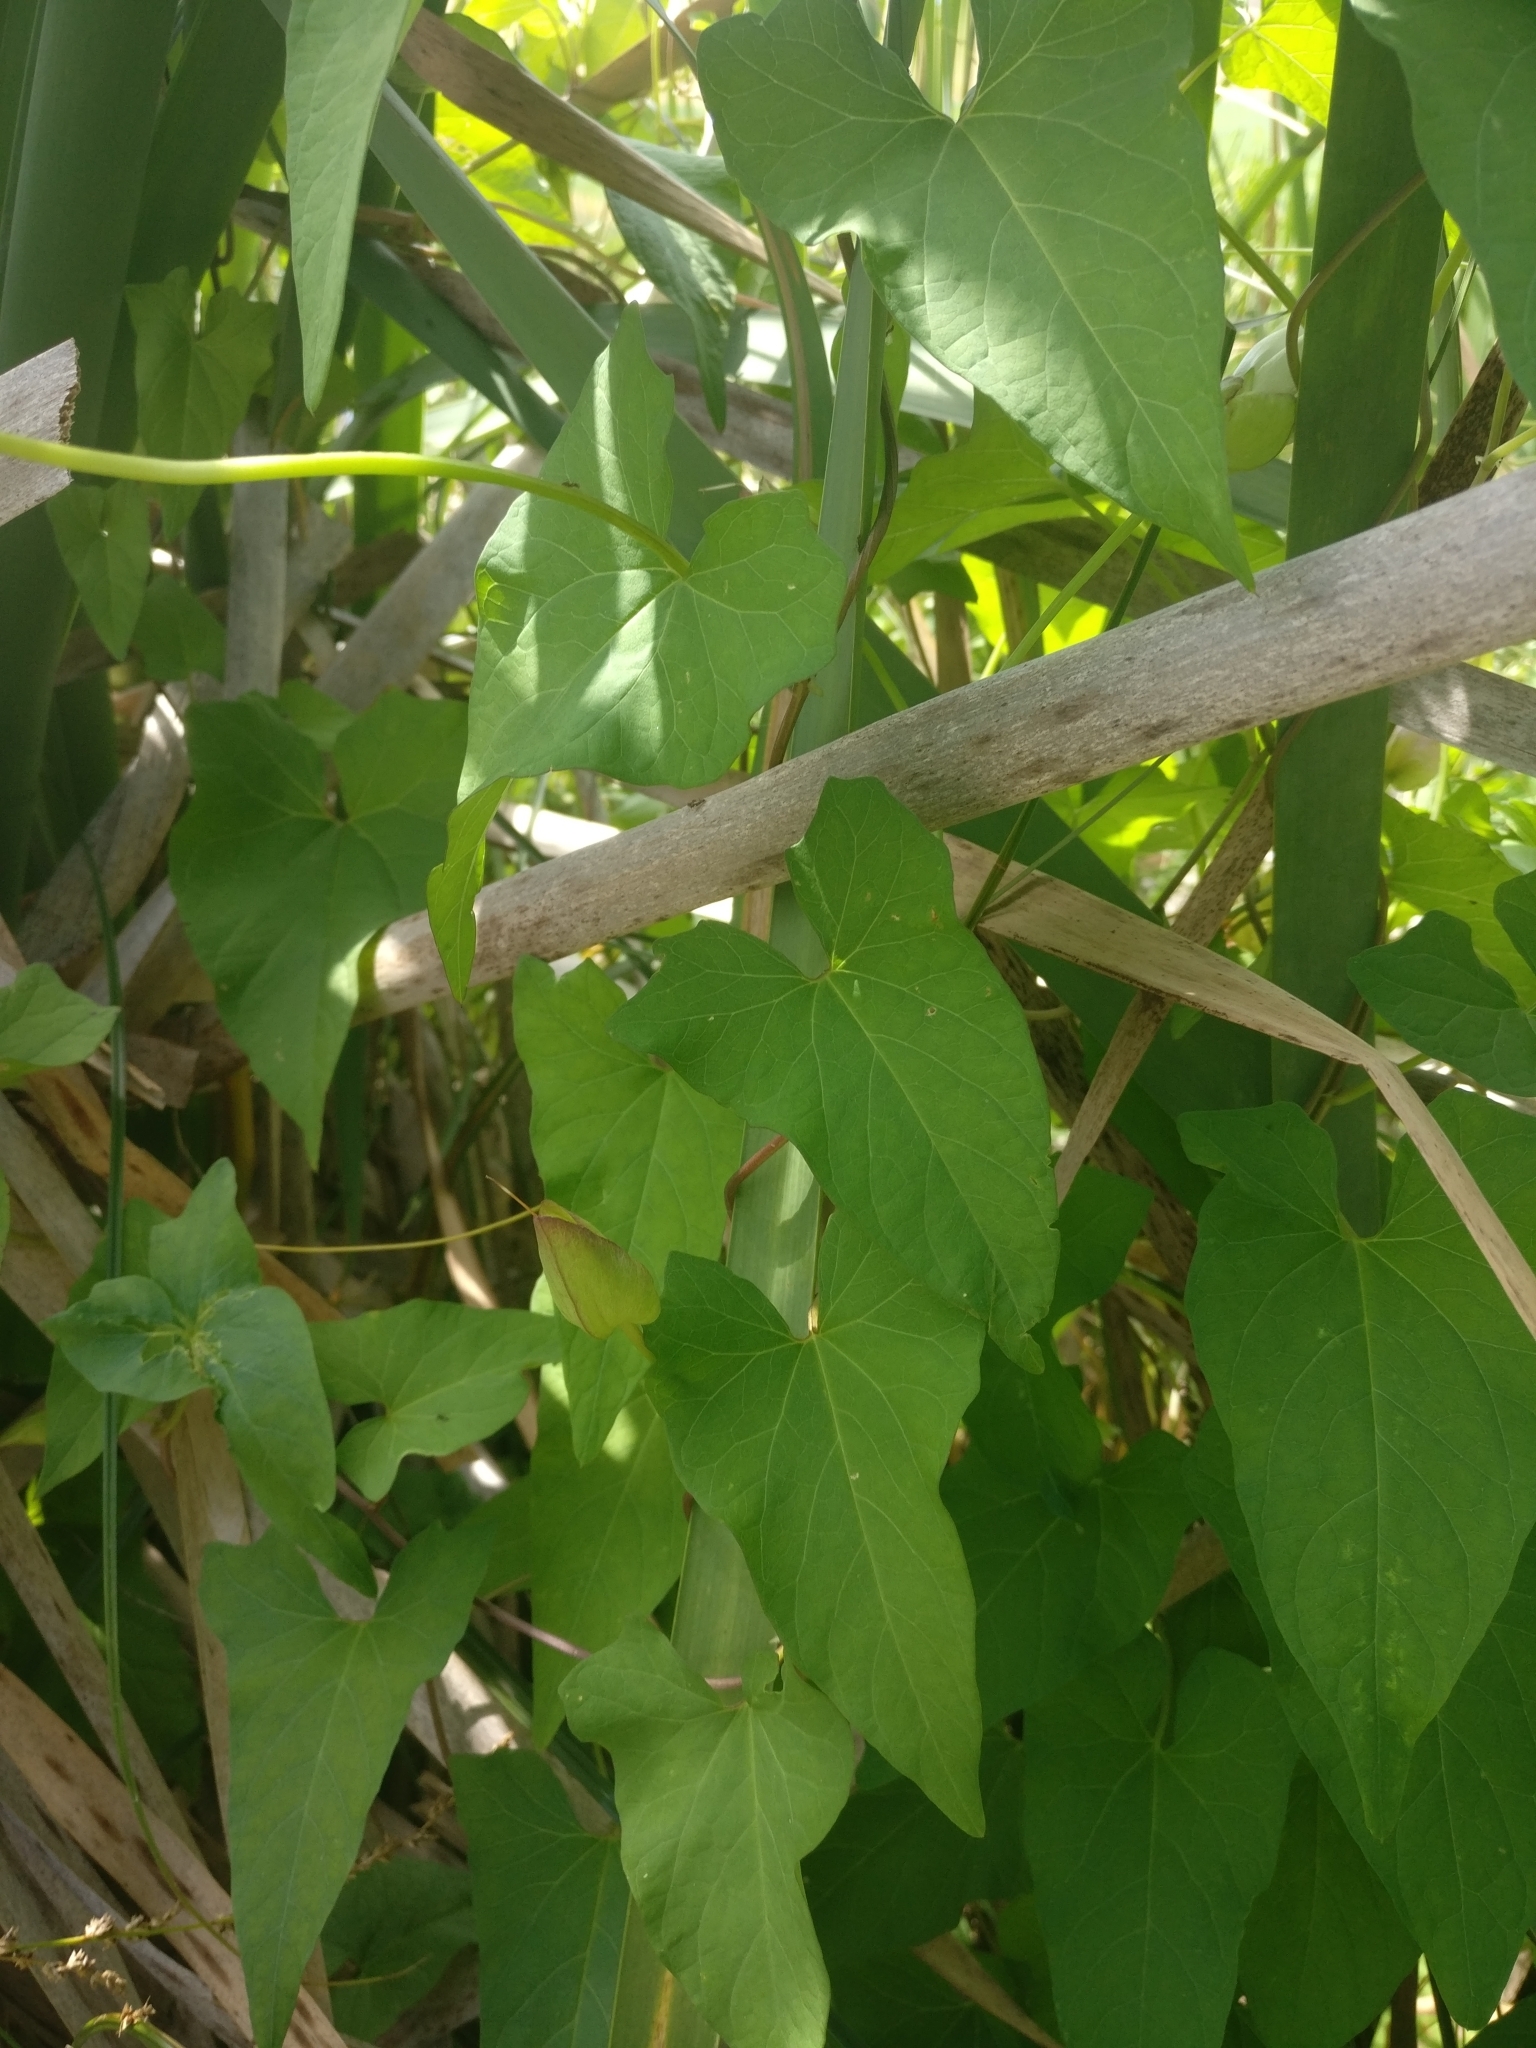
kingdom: Plantae
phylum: Tracheophyta
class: Magnoliopsida
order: Solanales
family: Convolvulaceae
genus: Calystegia
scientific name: Calystegia silvatica
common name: Large bindweed
